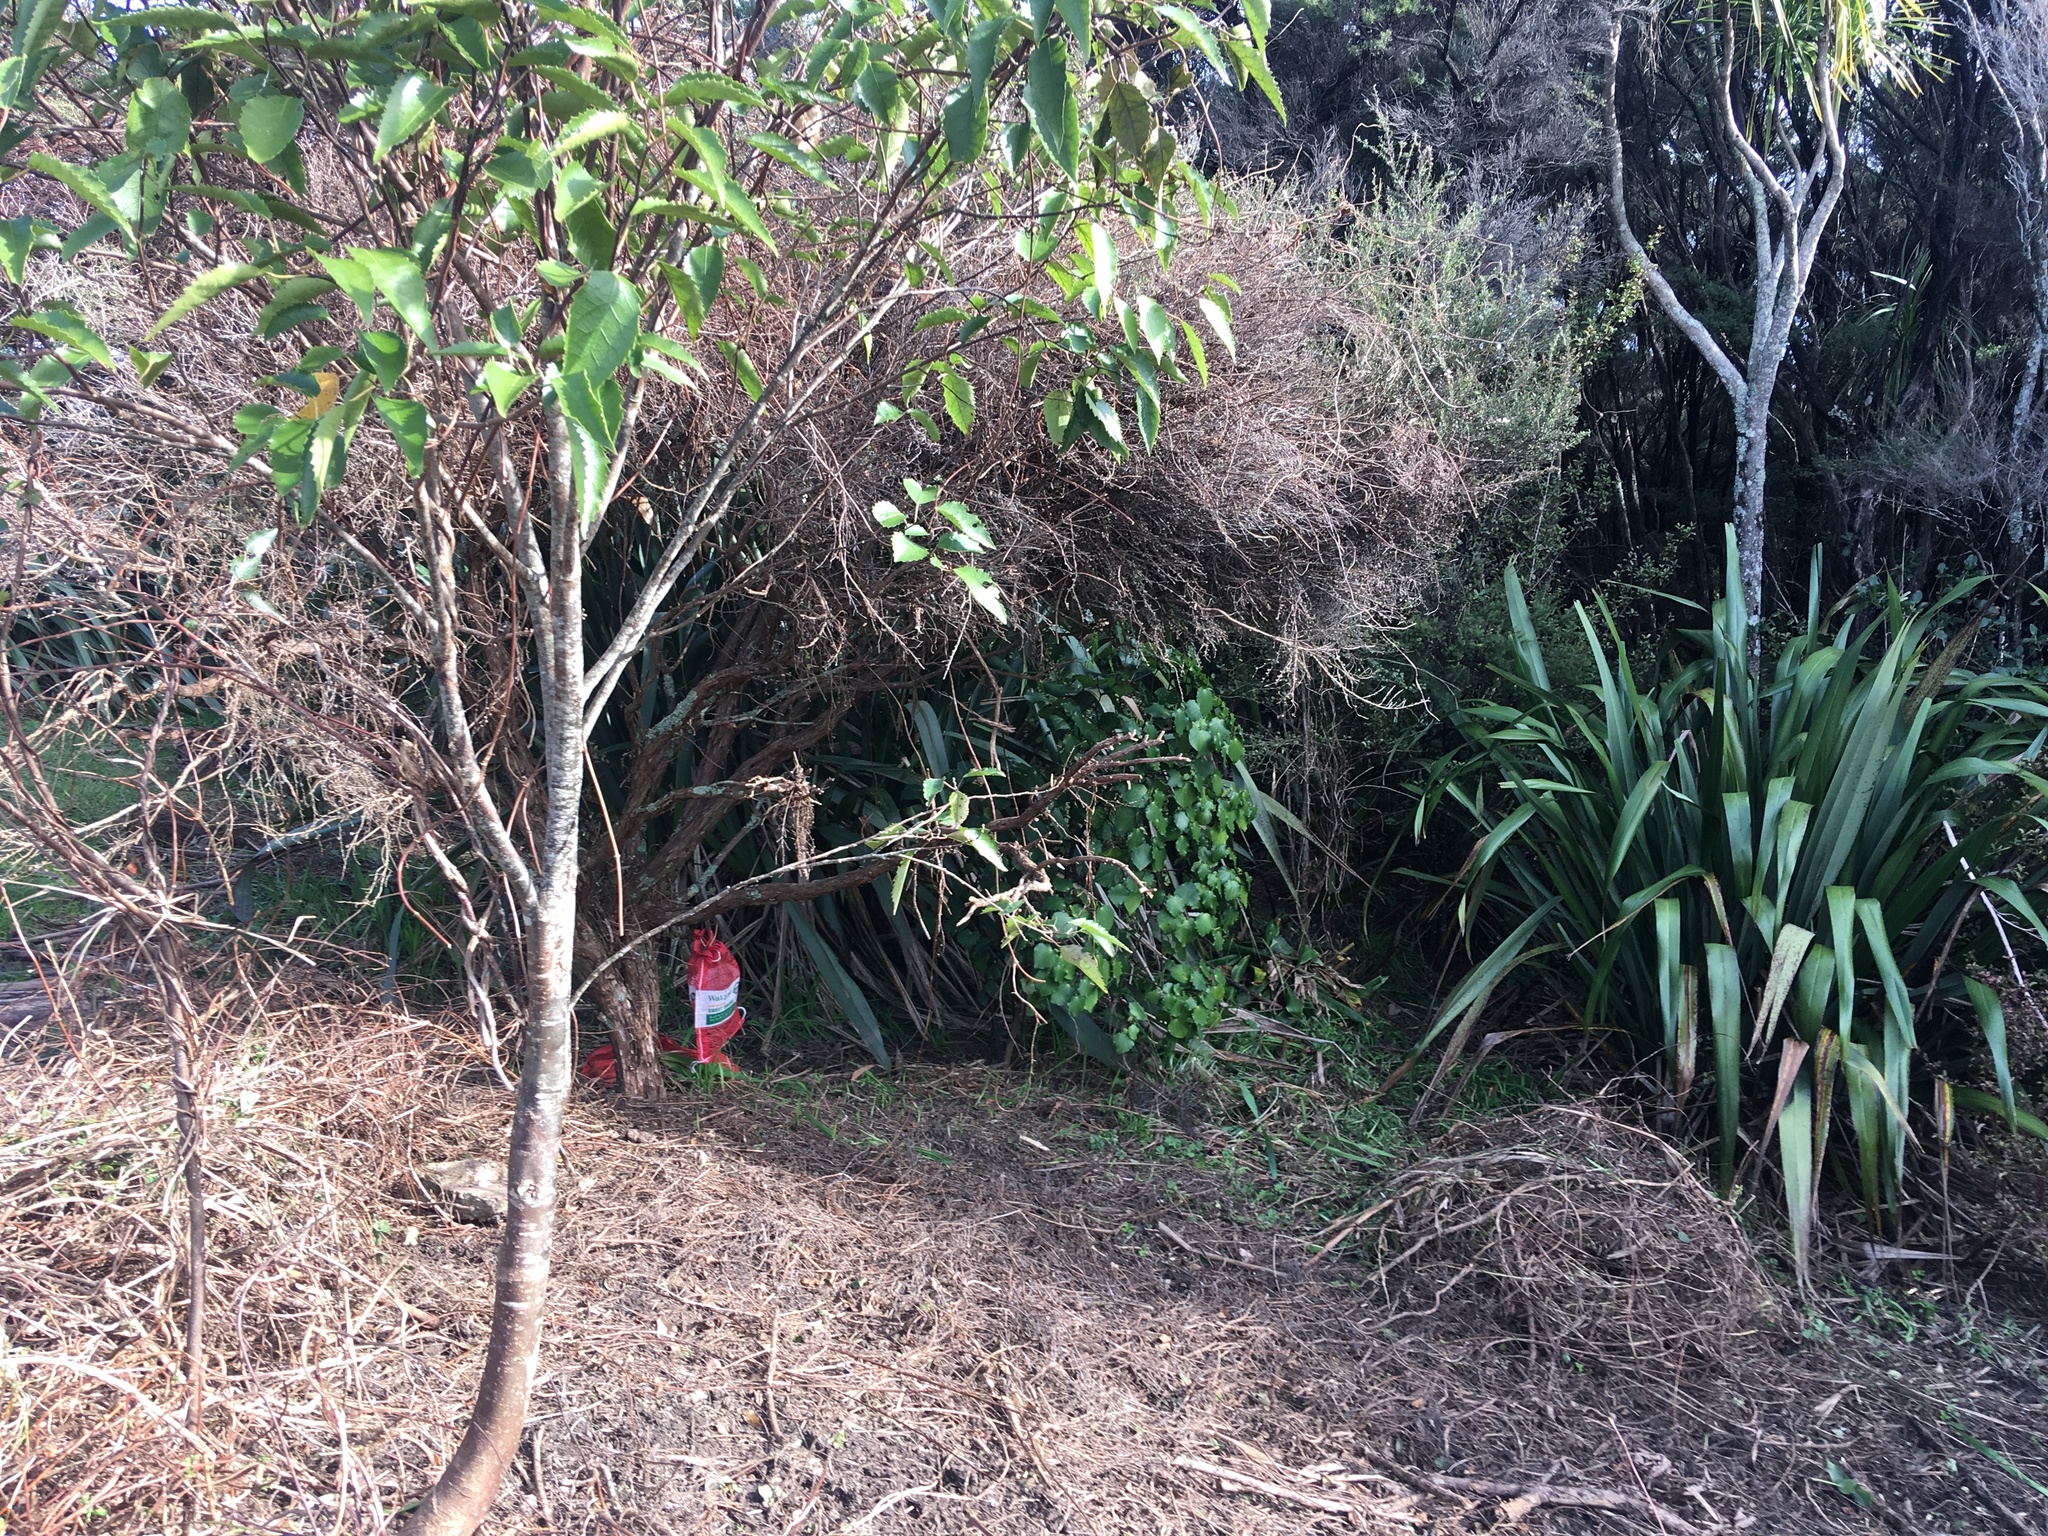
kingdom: Plantae
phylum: Tracheophyta
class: Magnoliopsida
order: Piperales
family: Piperaceae
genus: Macropiper
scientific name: Macropiper excelsum
